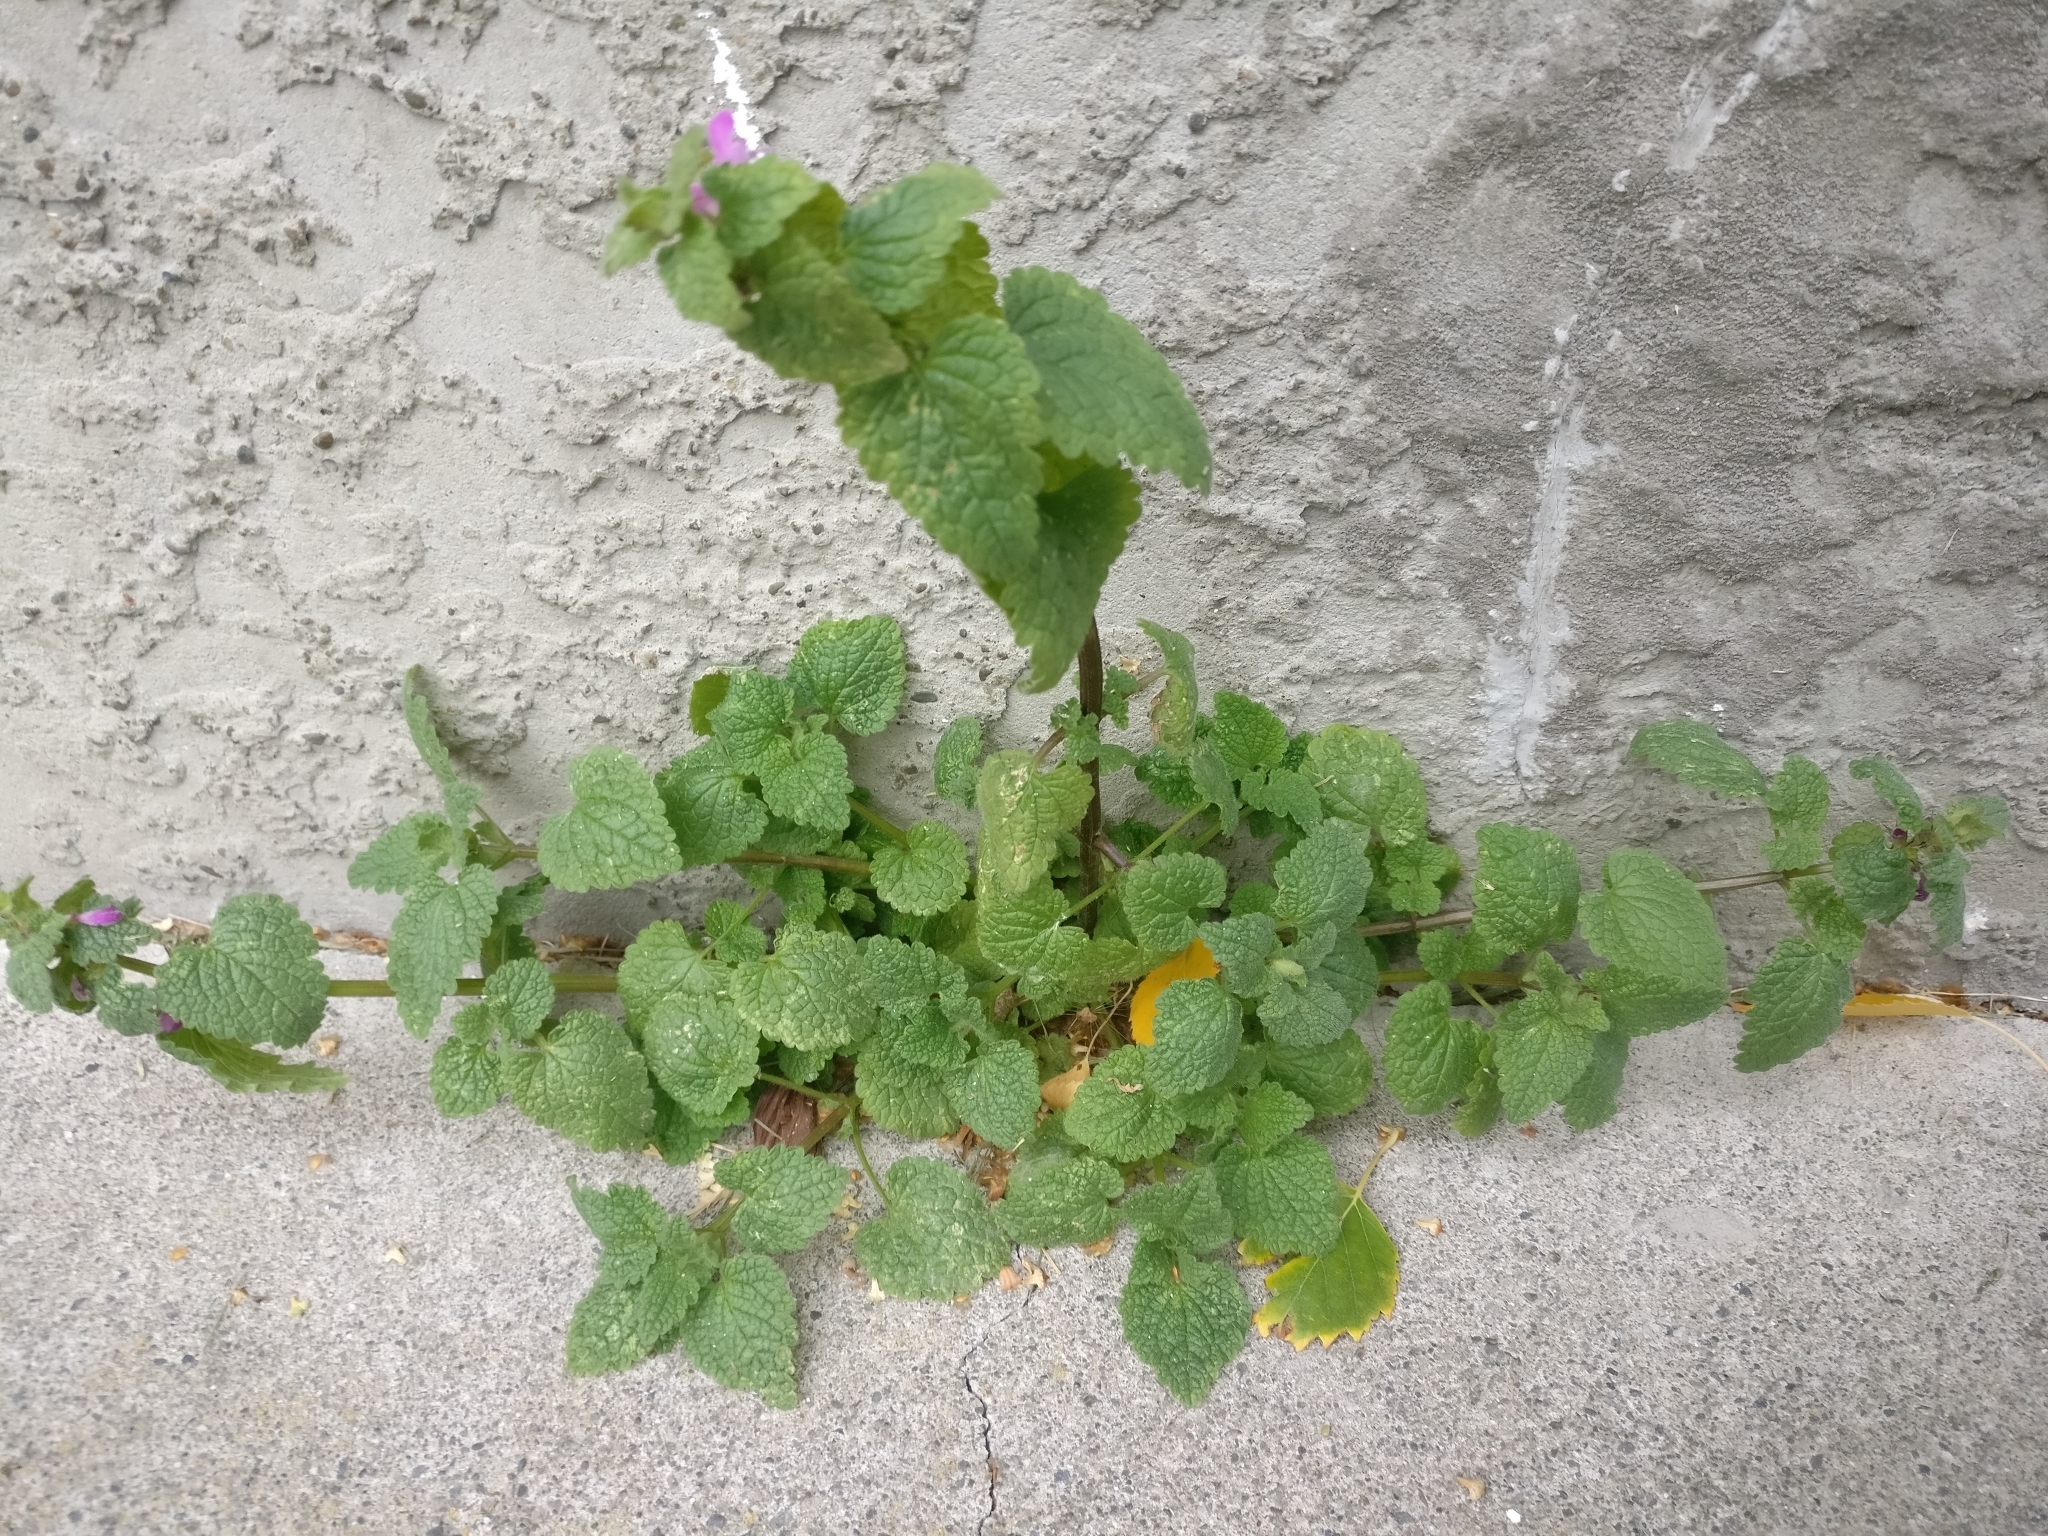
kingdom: Plantae
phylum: Tracheophyta
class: Magnoliopsida
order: Lamiales
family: Lamiaceae
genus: Lamium
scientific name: Lamium purpureum
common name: Red dead-nettle
